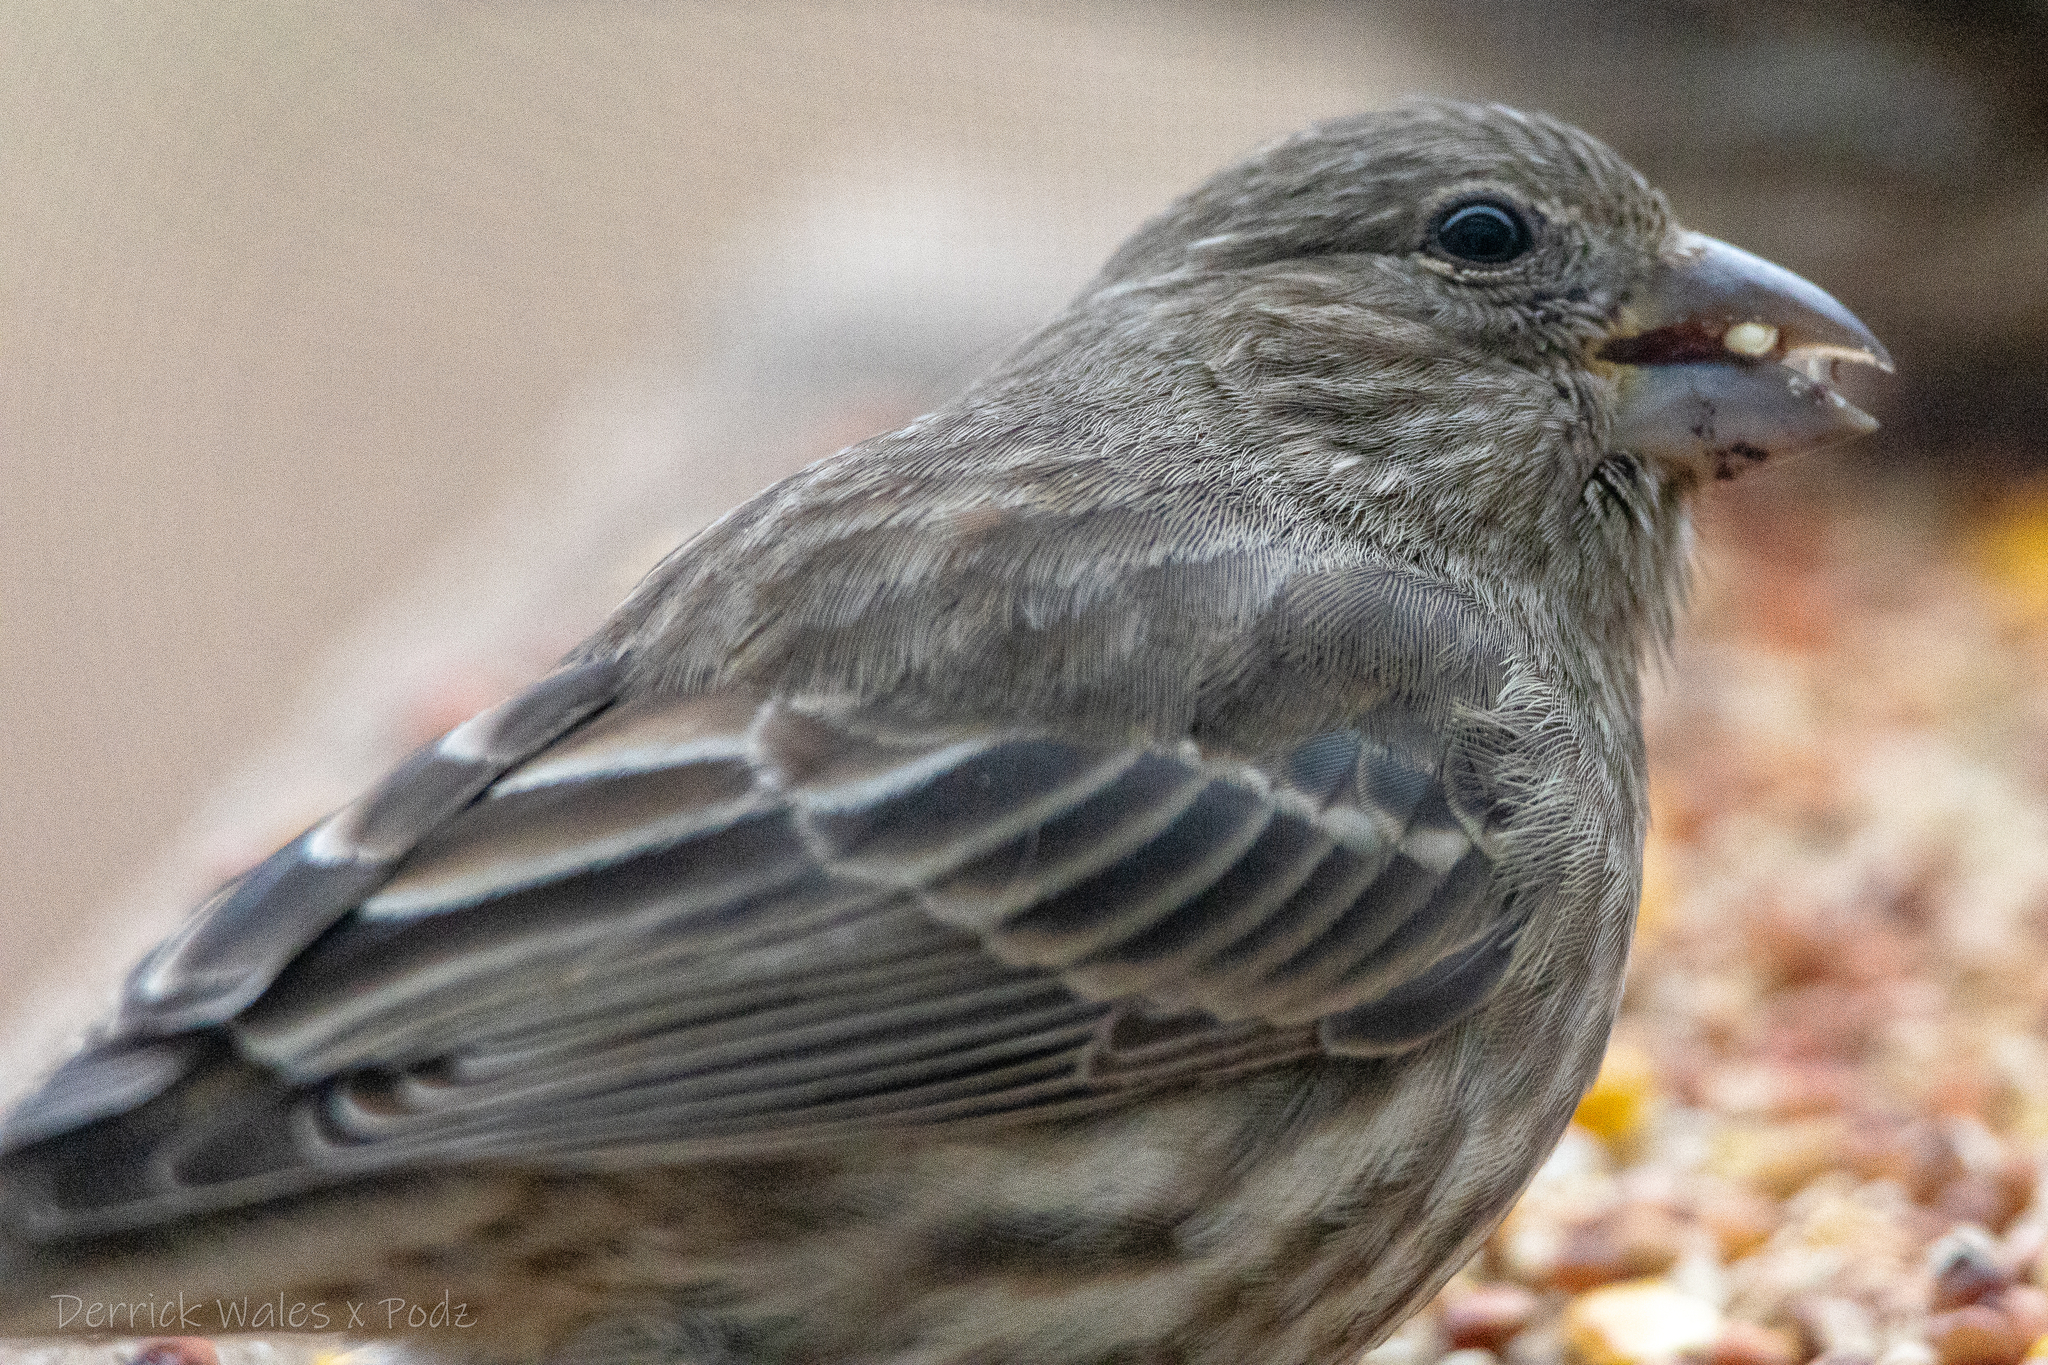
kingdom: Animalia
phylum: Chordata
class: Aves
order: Passeriformes
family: Fringillidae
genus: Haemorhous
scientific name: Haemorhous mexicanus
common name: House finch
